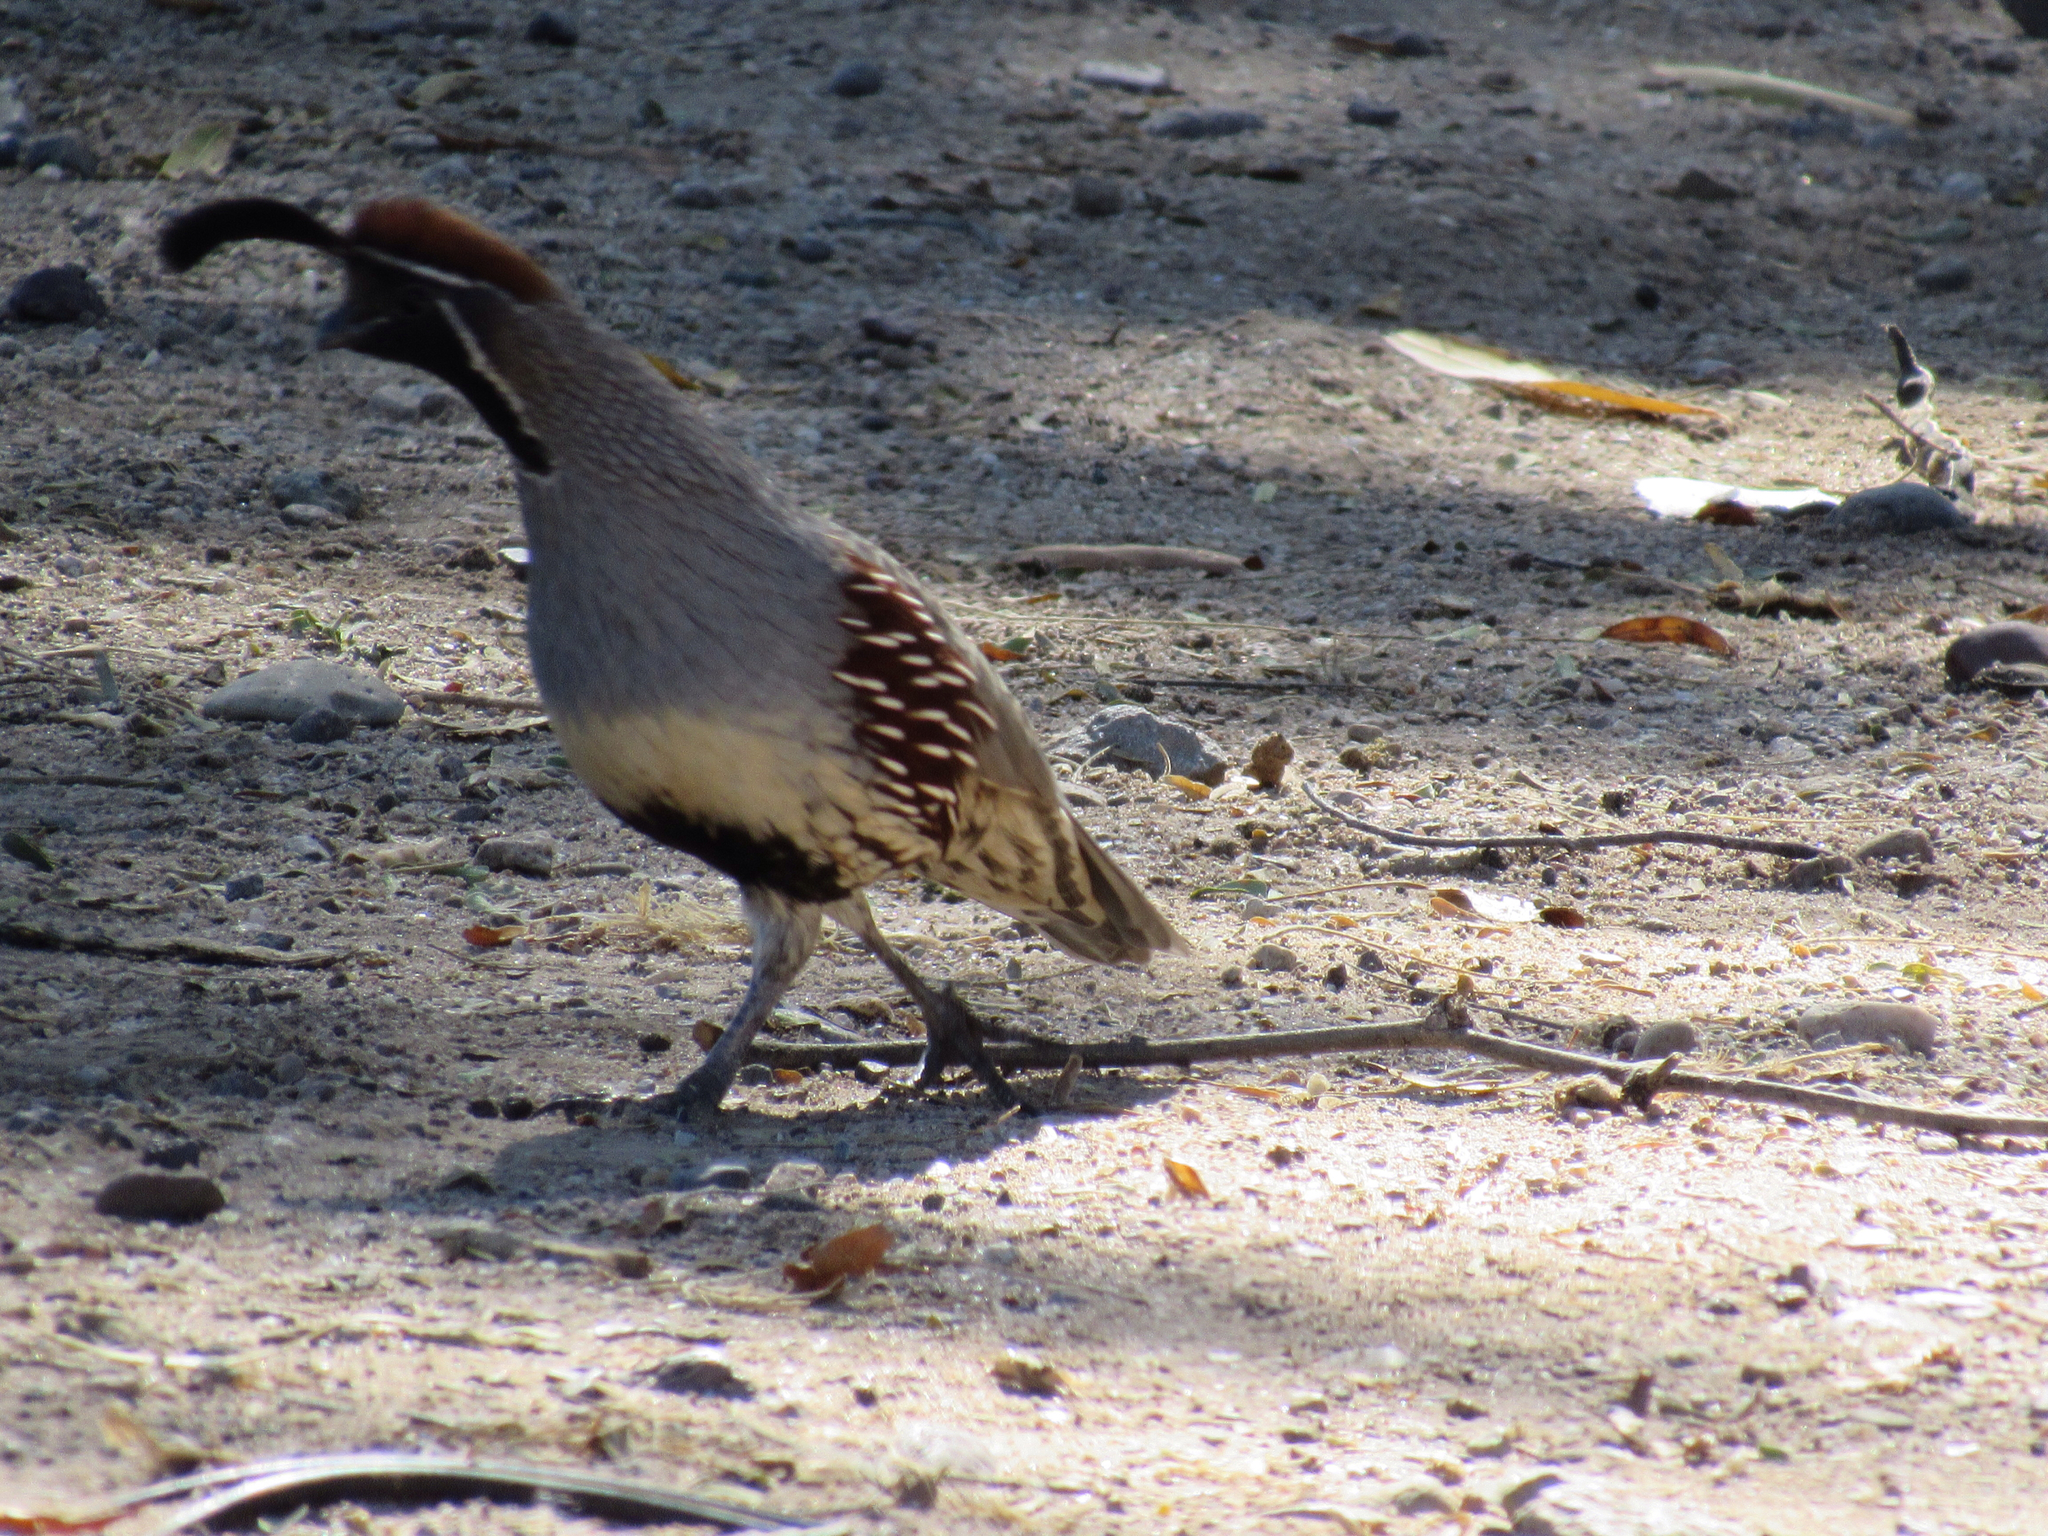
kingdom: Animalia
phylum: Chordata
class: Aves
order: Galliformes
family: Odontophoridae
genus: Callipepla
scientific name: Callipepla gambelii
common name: Gambel's quail
